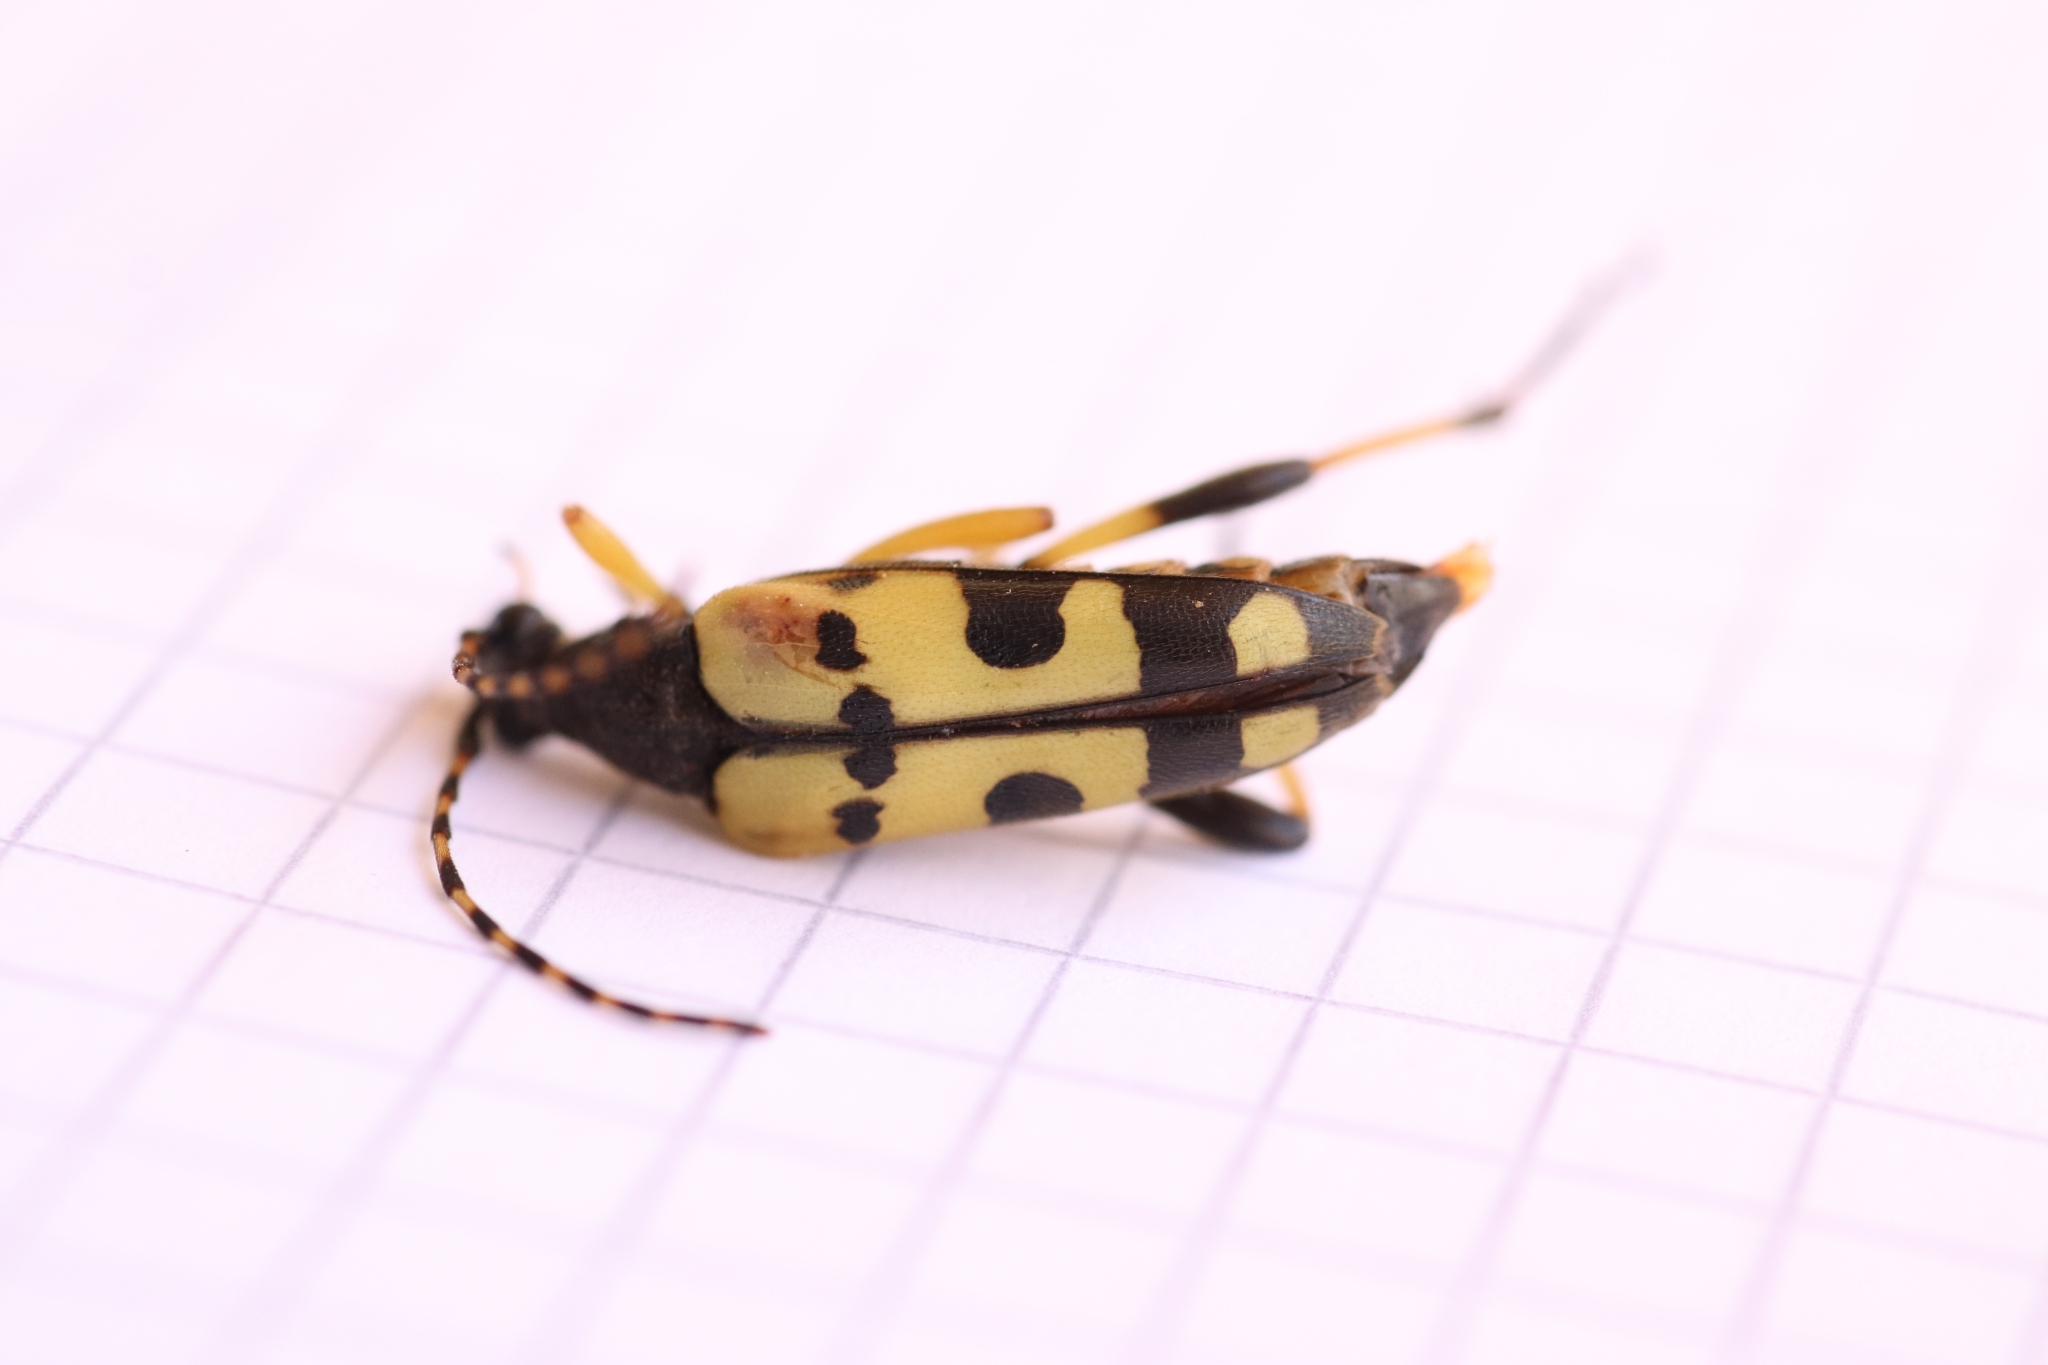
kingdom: Animalia
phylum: Arthropoda
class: Insecta
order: Coleoptera
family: Cerambycidae
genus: Rutpela
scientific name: Rutpela maculata
